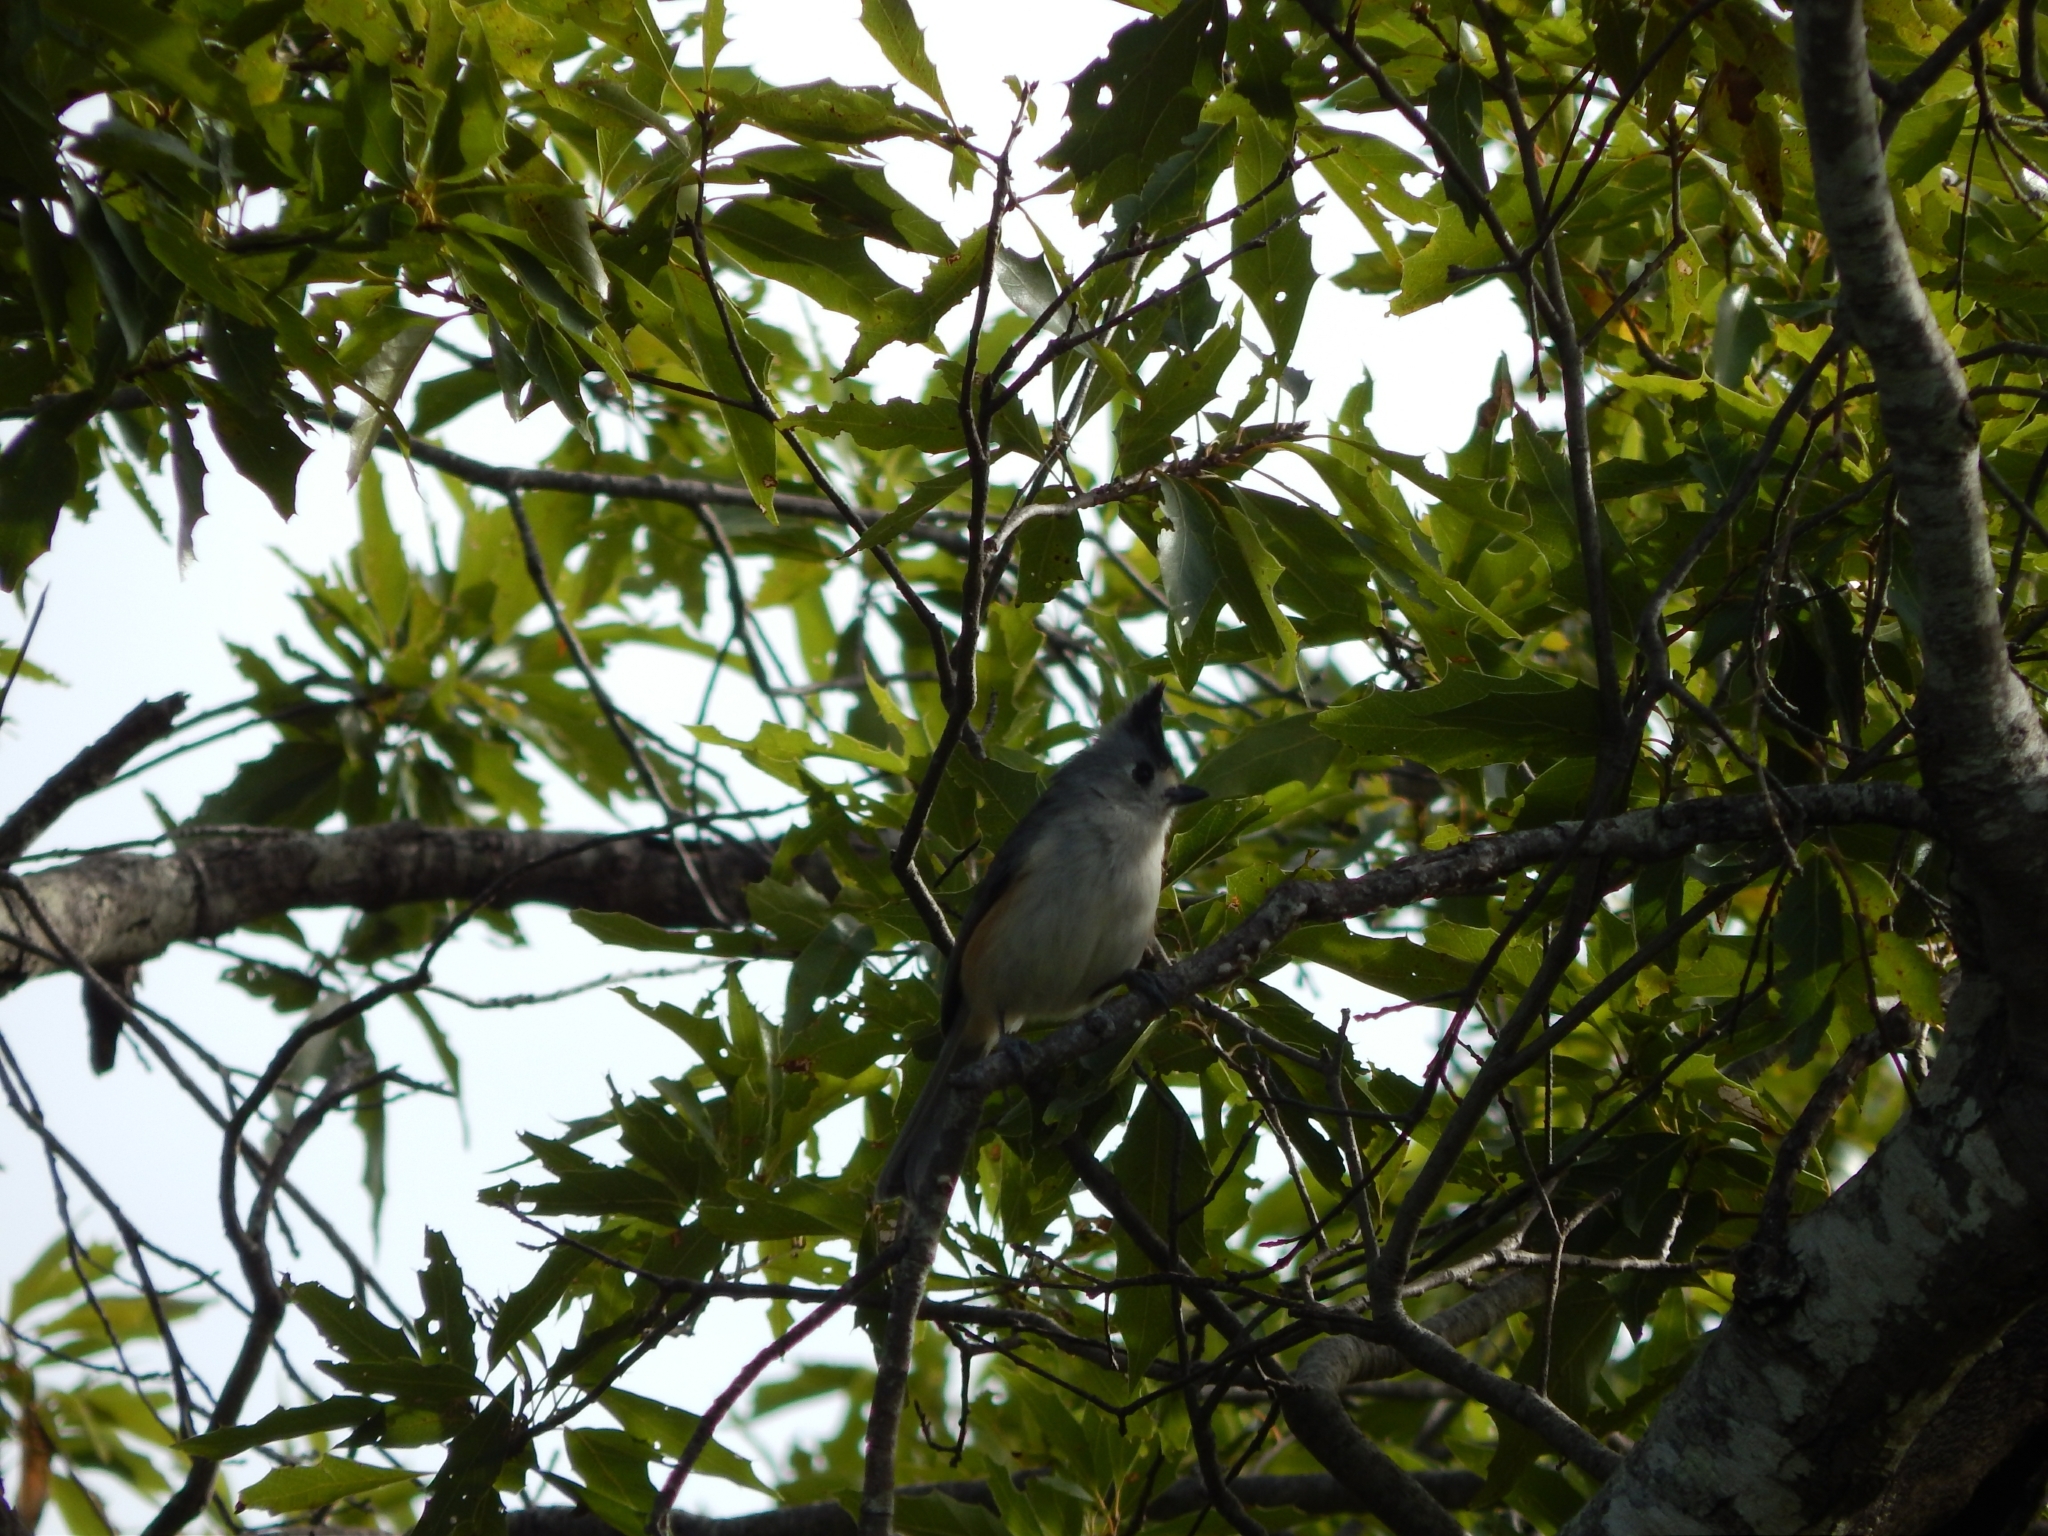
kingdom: Animalia
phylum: Chordata
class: Aves
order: Passeriformes
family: Paridae
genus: Baeolophus
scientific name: Baeolophus atricristatus
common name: Black-crested titmouse
